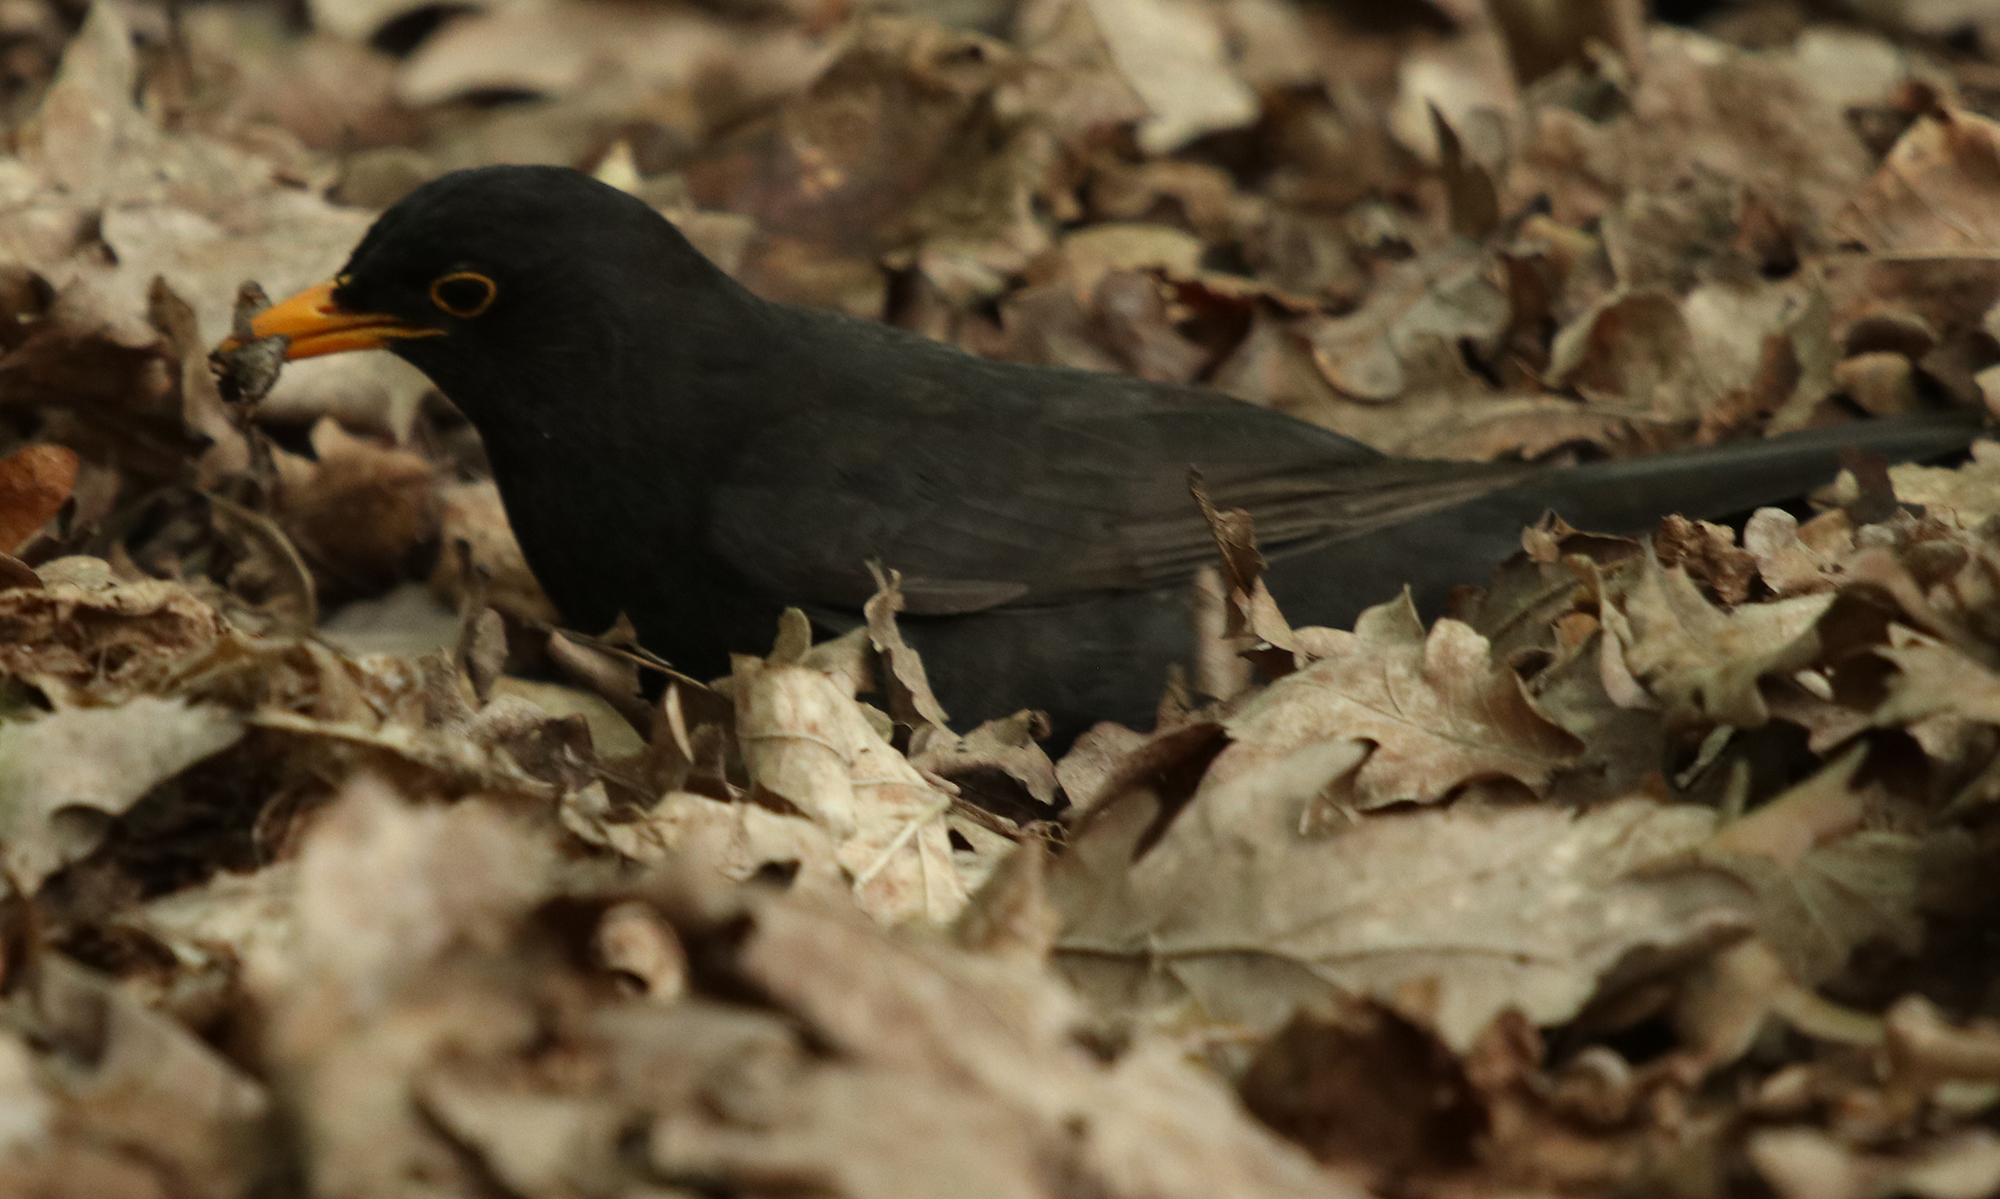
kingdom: Animalia
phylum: Chordata
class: Aves
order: Passeriformes
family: Turdidae
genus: Turdus
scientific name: Turdus merula
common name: Common blackbird
